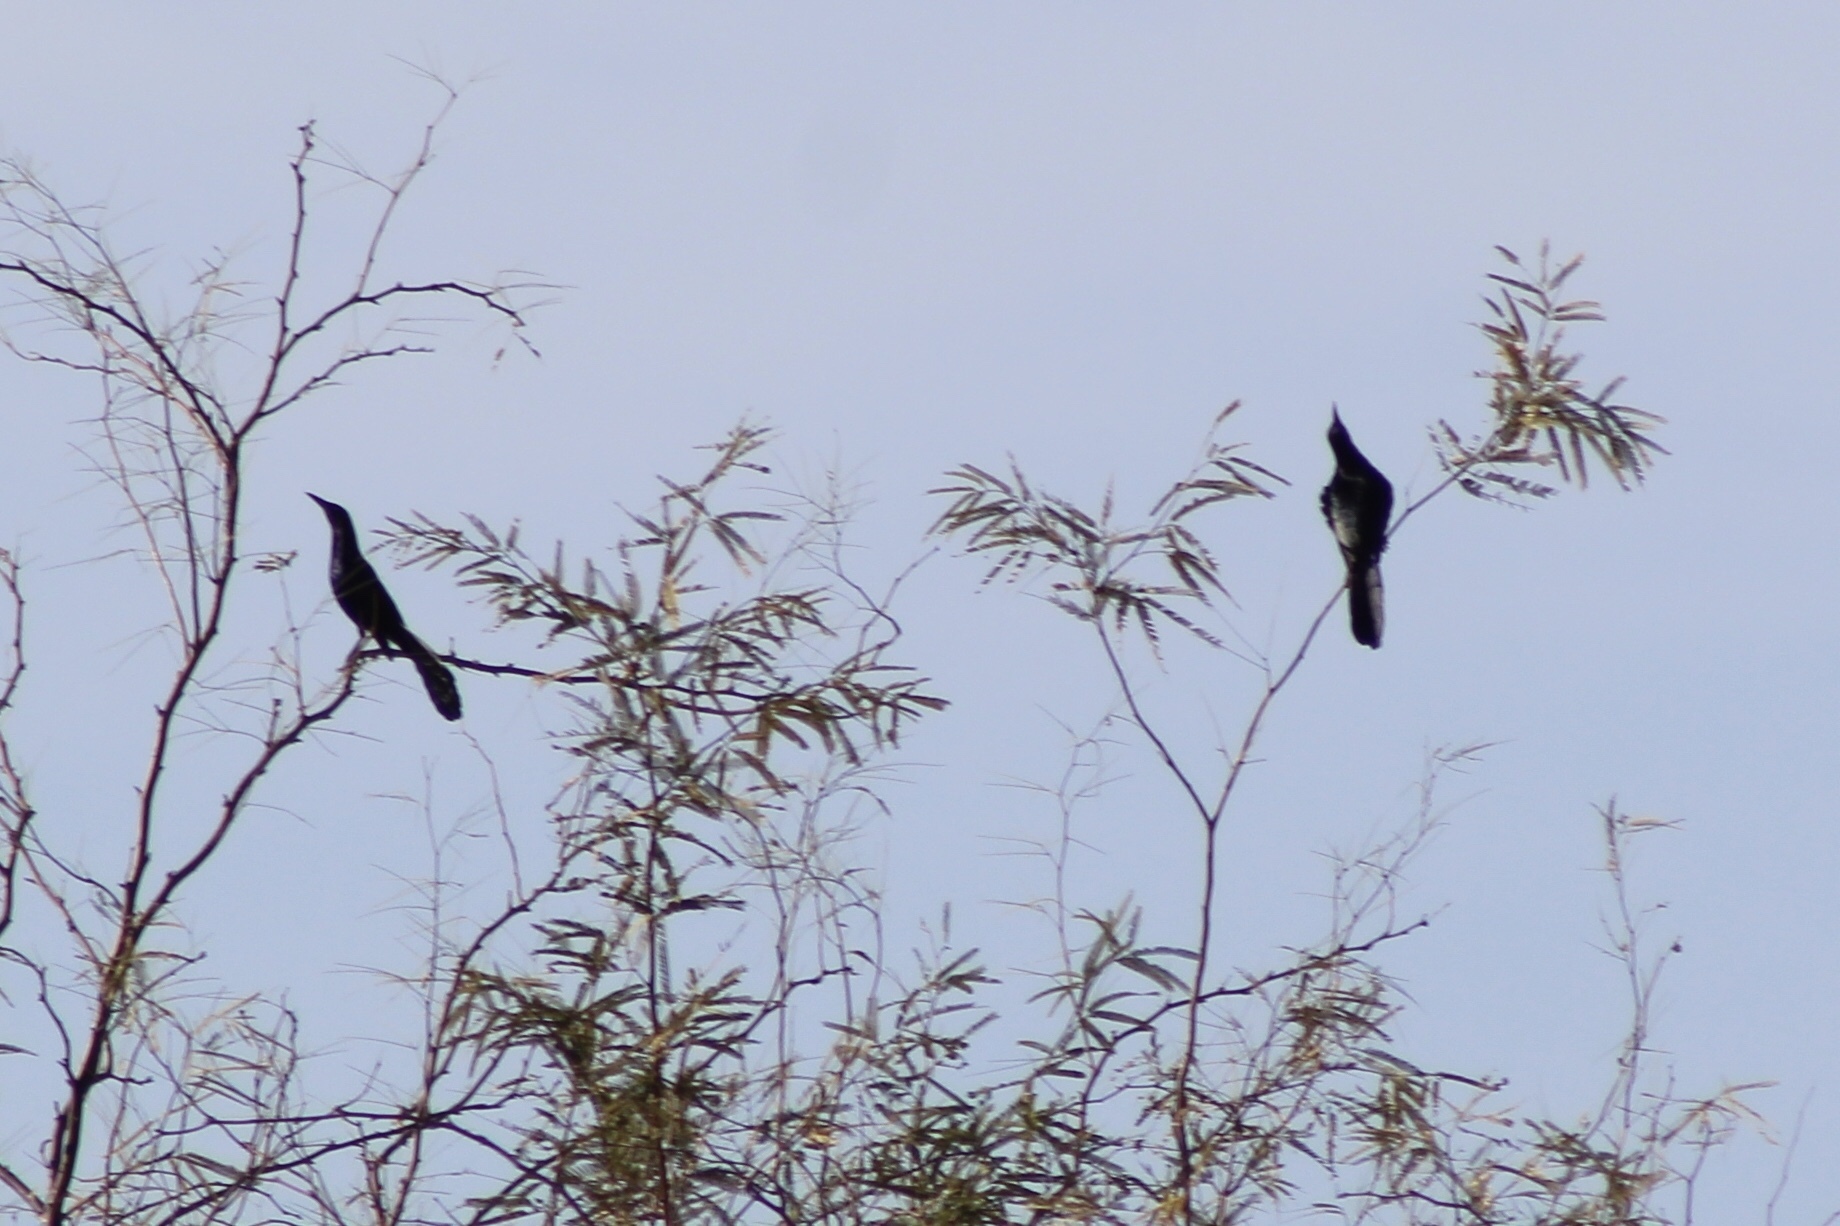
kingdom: Animalia
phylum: Chordata
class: Aves
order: Passeriformes
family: Icteridae
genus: Quiscalus
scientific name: Quiscalus mexicanus
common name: Great-tailed grackle
